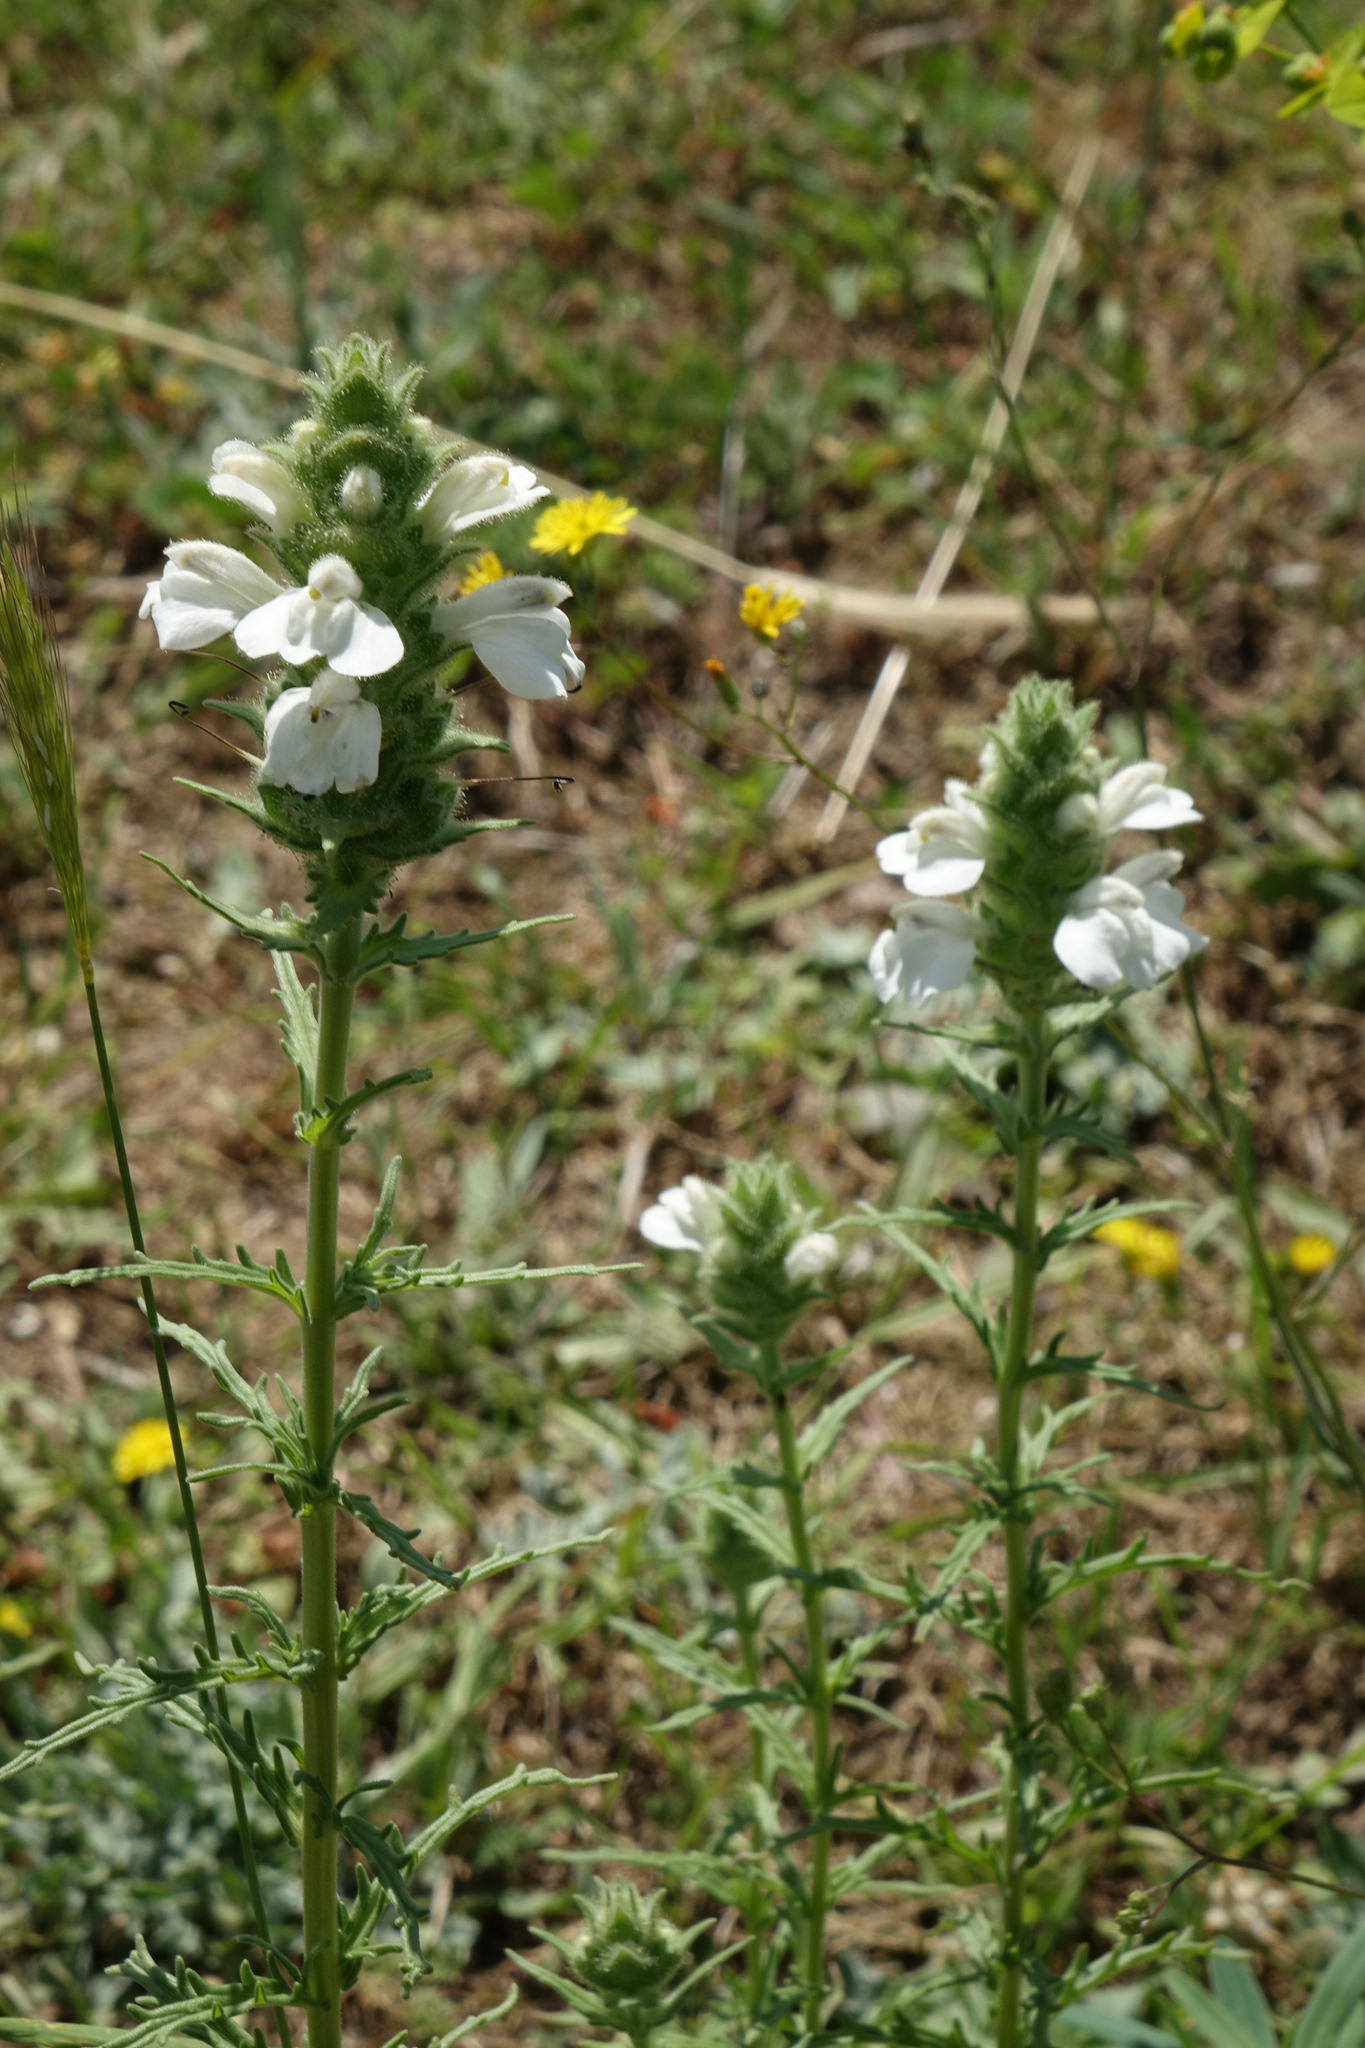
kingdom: Plantae
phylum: Tracheophyta
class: Magnoliopsida
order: Lamiales
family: Orobanchaceae
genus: Bellardia
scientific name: Bellardia trixago
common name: Mediterranean lineseed
